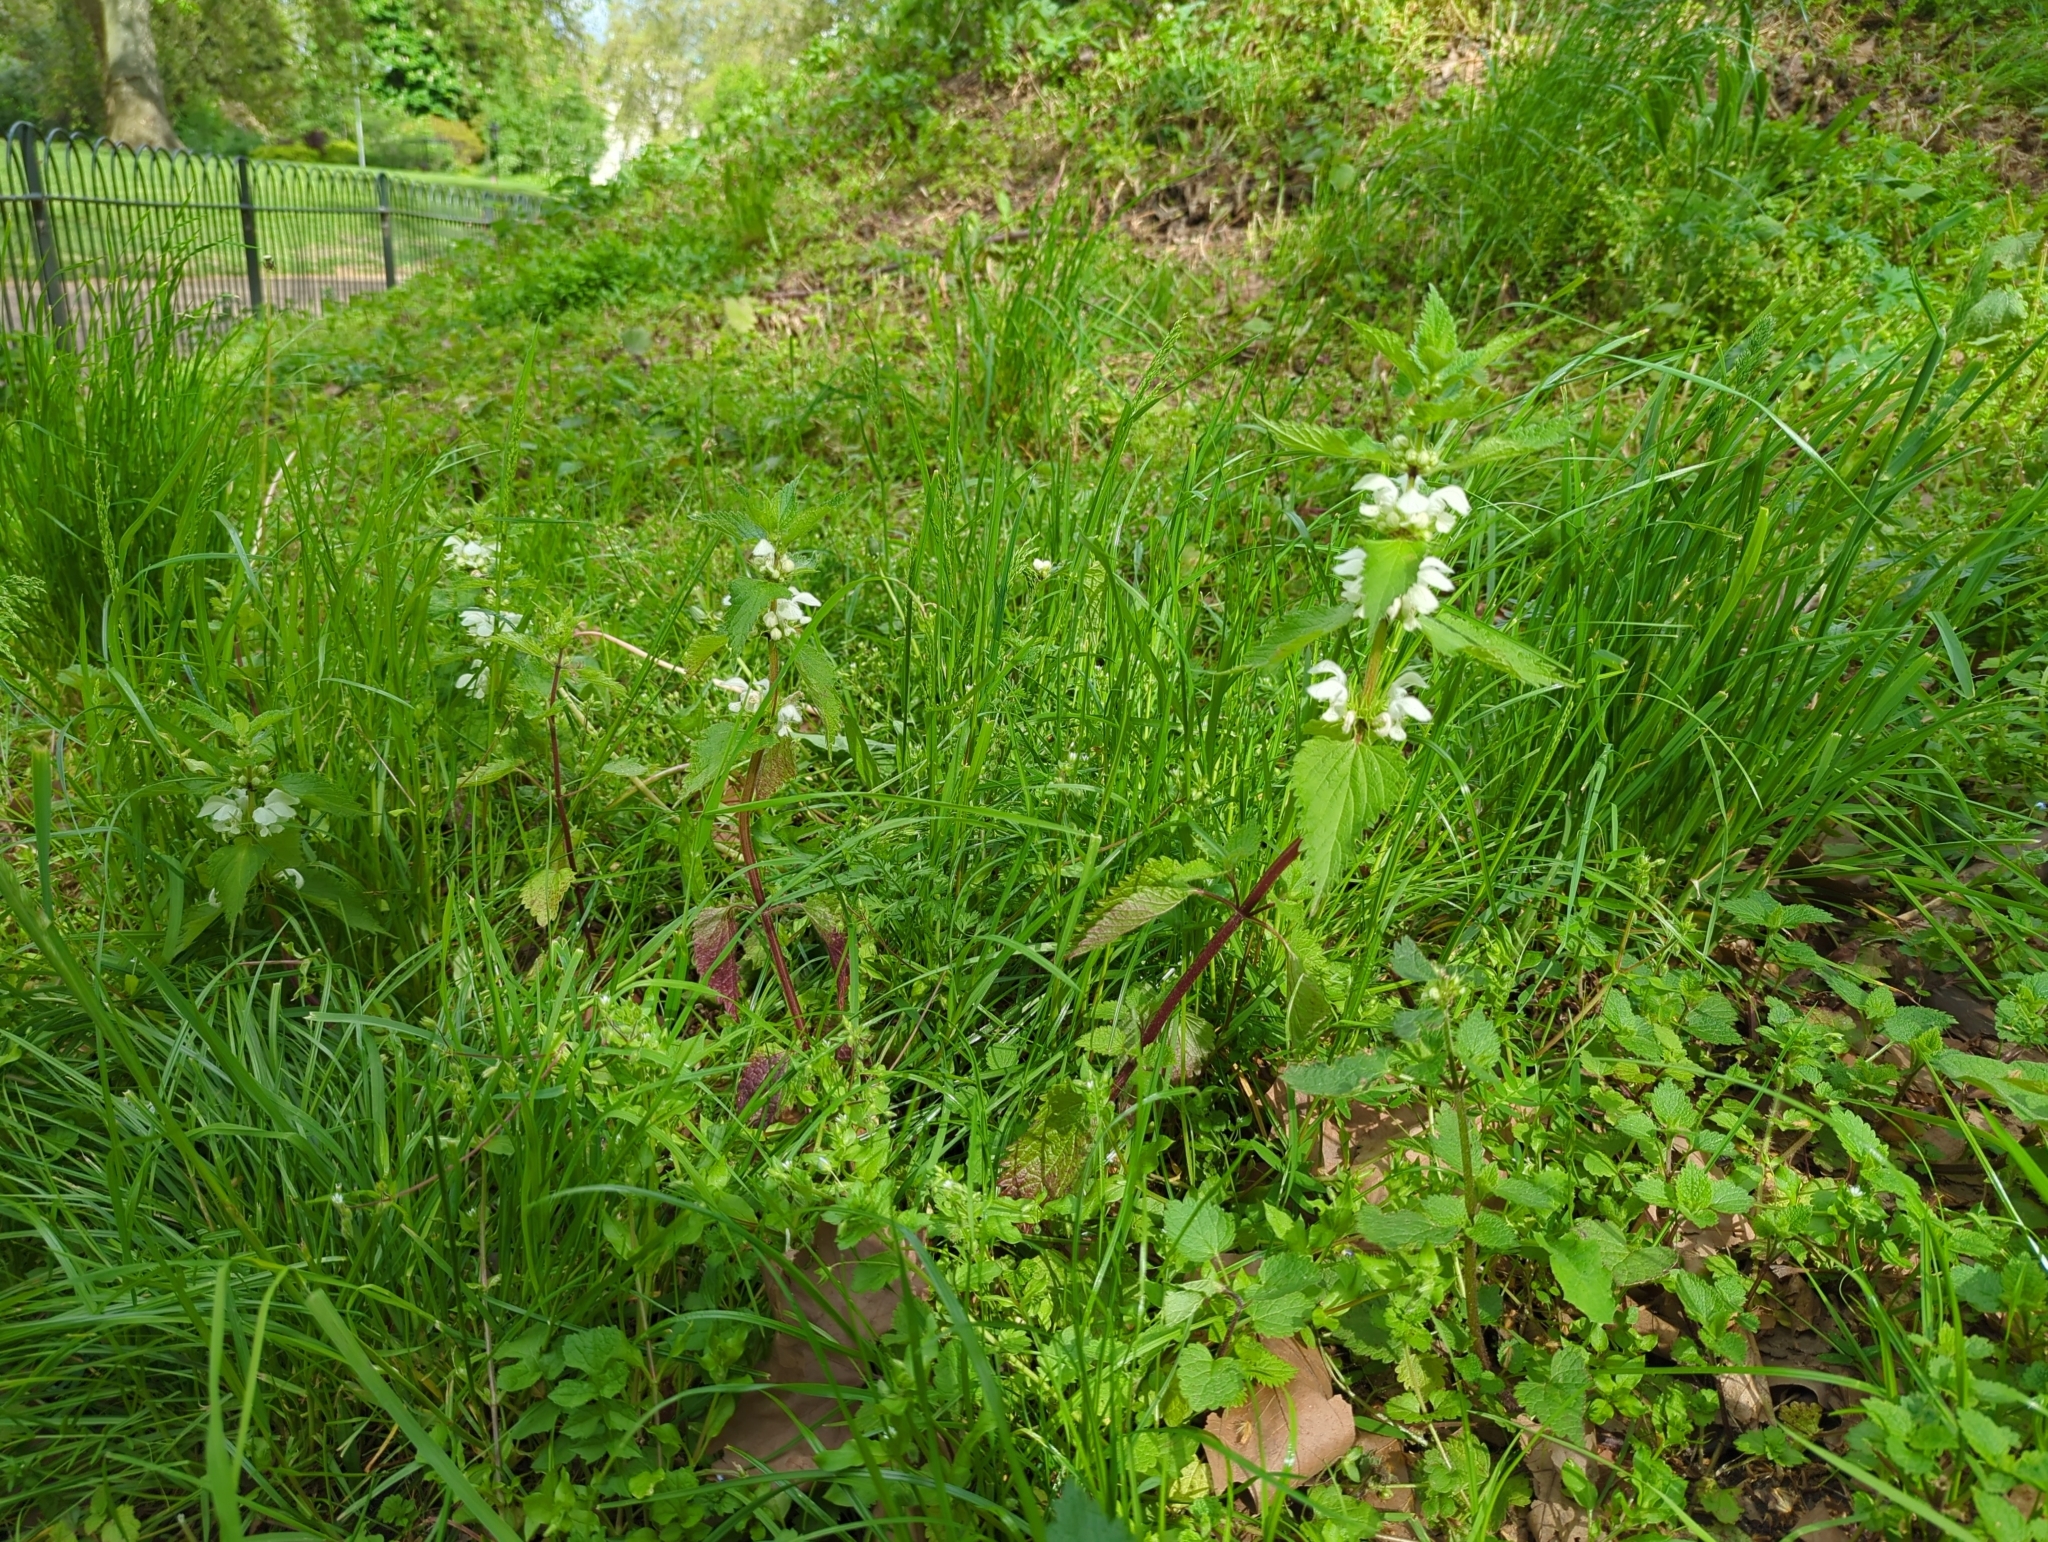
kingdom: Plantae
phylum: Tracheophyta
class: Magnoliopsida
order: Lamiales
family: Lamiaceae
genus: Lamium
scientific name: Lamium album
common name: White dead-nettle
